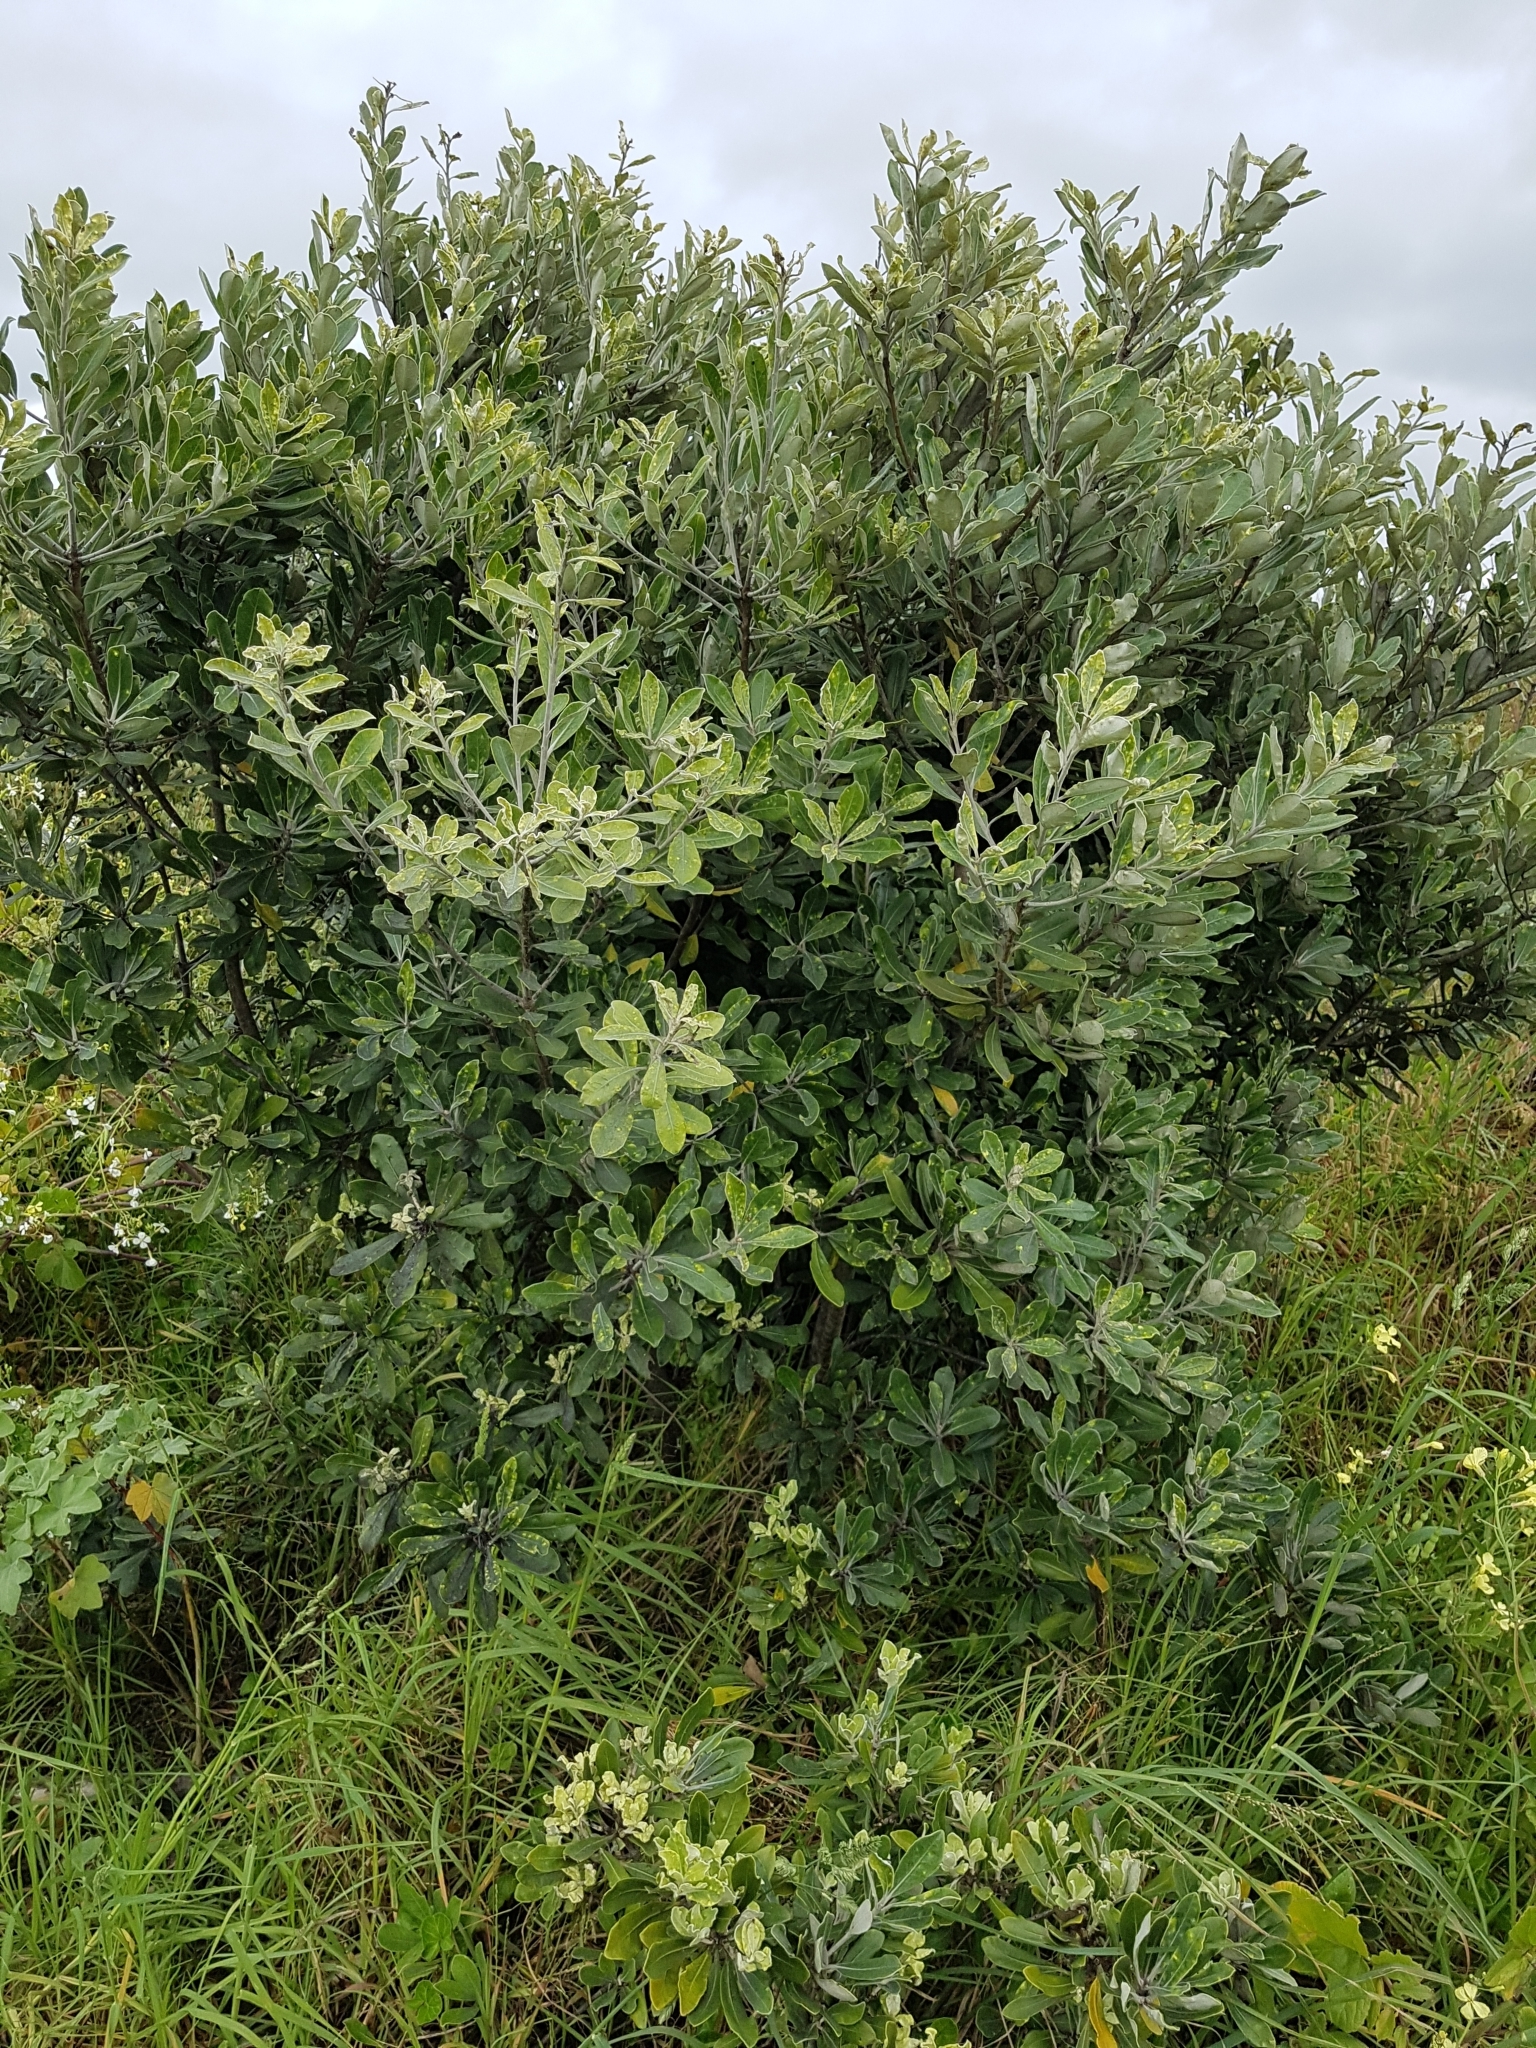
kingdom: Plantae
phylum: Tracheophyta
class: Magnoliopsida
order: Apiales
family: Pittosporaceae
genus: Pittosporum
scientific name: Pittosporum crassifolium
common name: Karo
